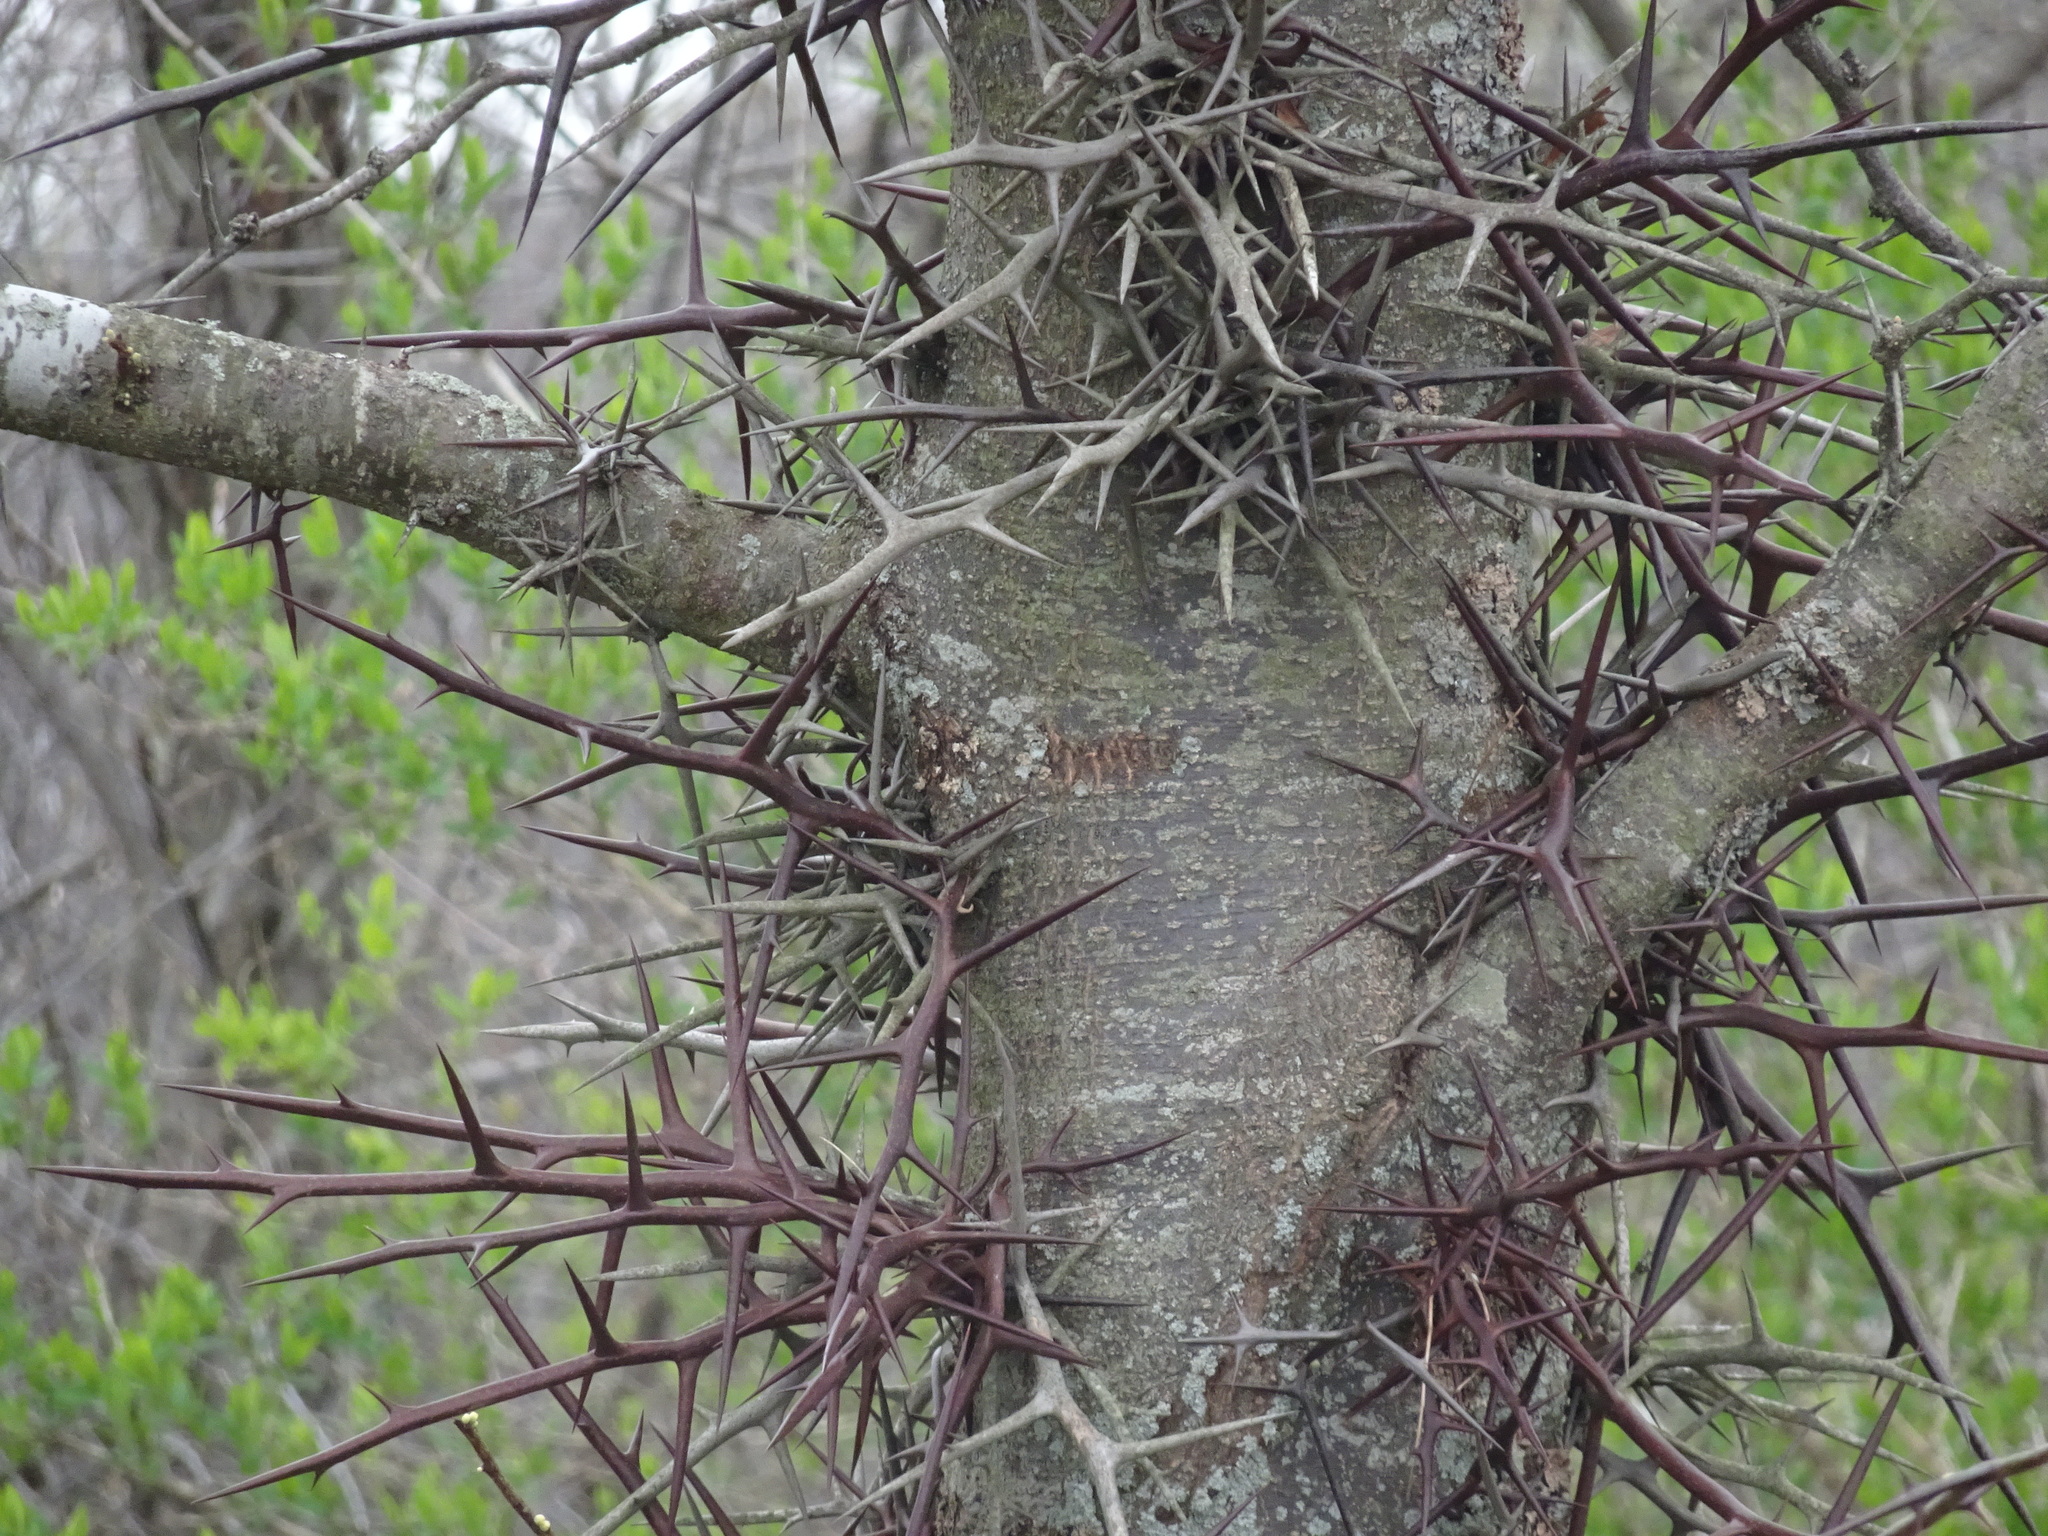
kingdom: Plantae
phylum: Tracheophyta
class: Magnoliopsida
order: Fabales
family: Fabaceae
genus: Gleditsia
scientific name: Gleditsia triacanthos
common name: Common honeylocust
